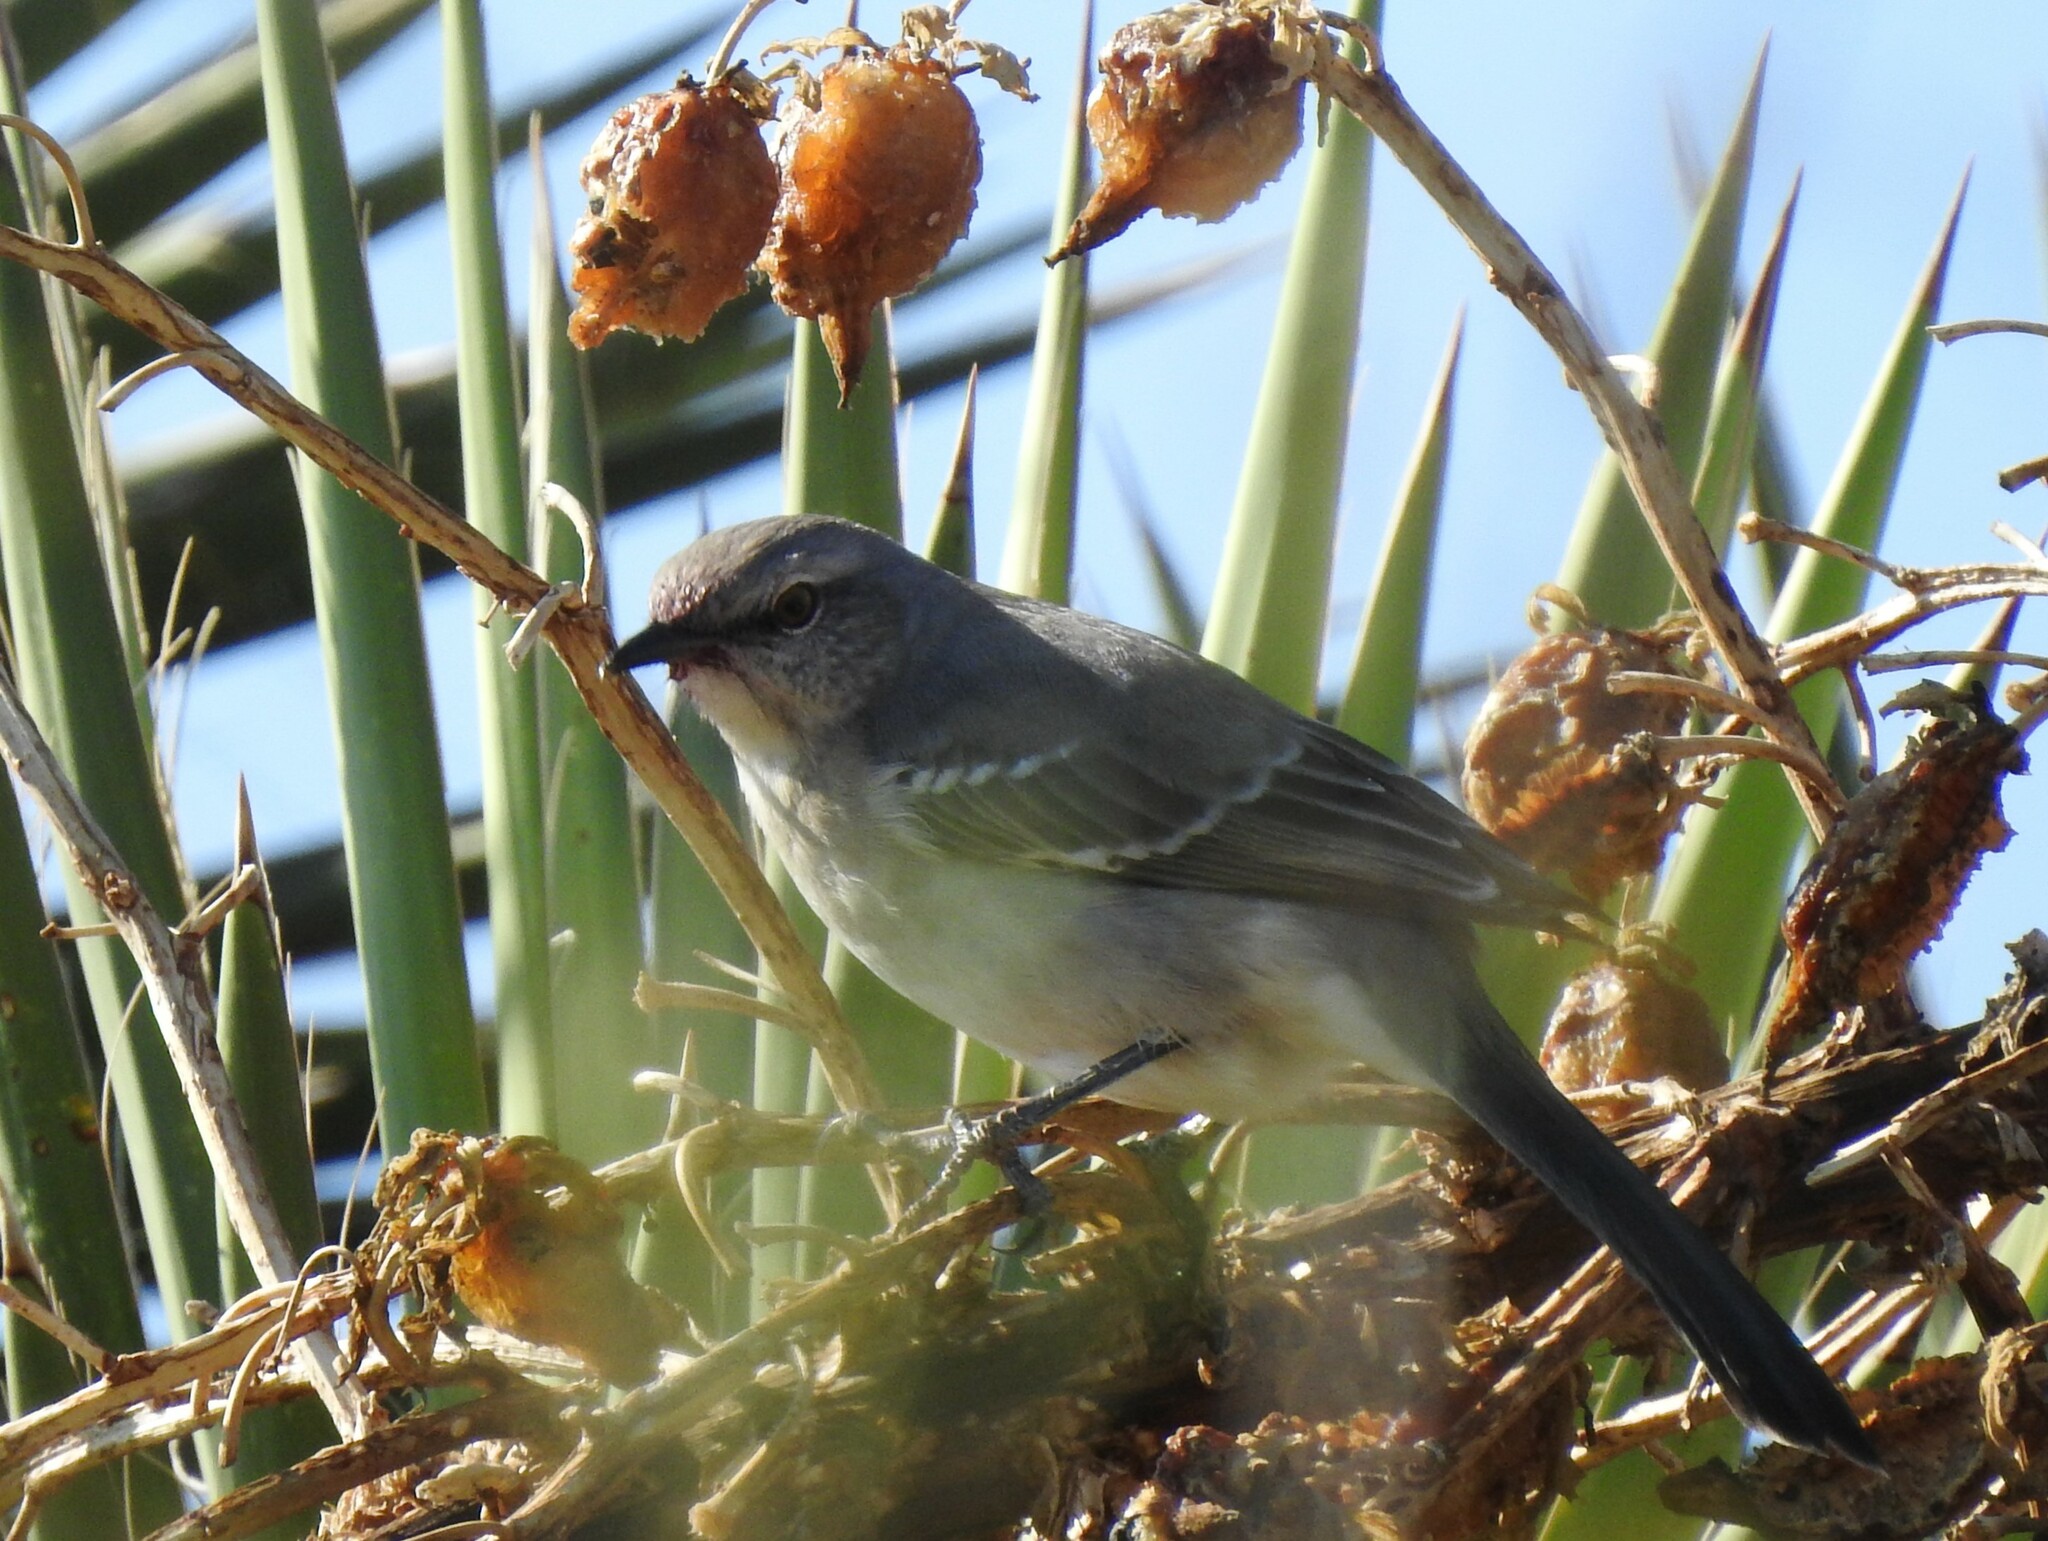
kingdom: Animalia
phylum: Chordata
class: Aves
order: Passeriformes
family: Mimidae
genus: Mimus
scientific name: Mimus polyglottos
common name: Northern mockingbird
